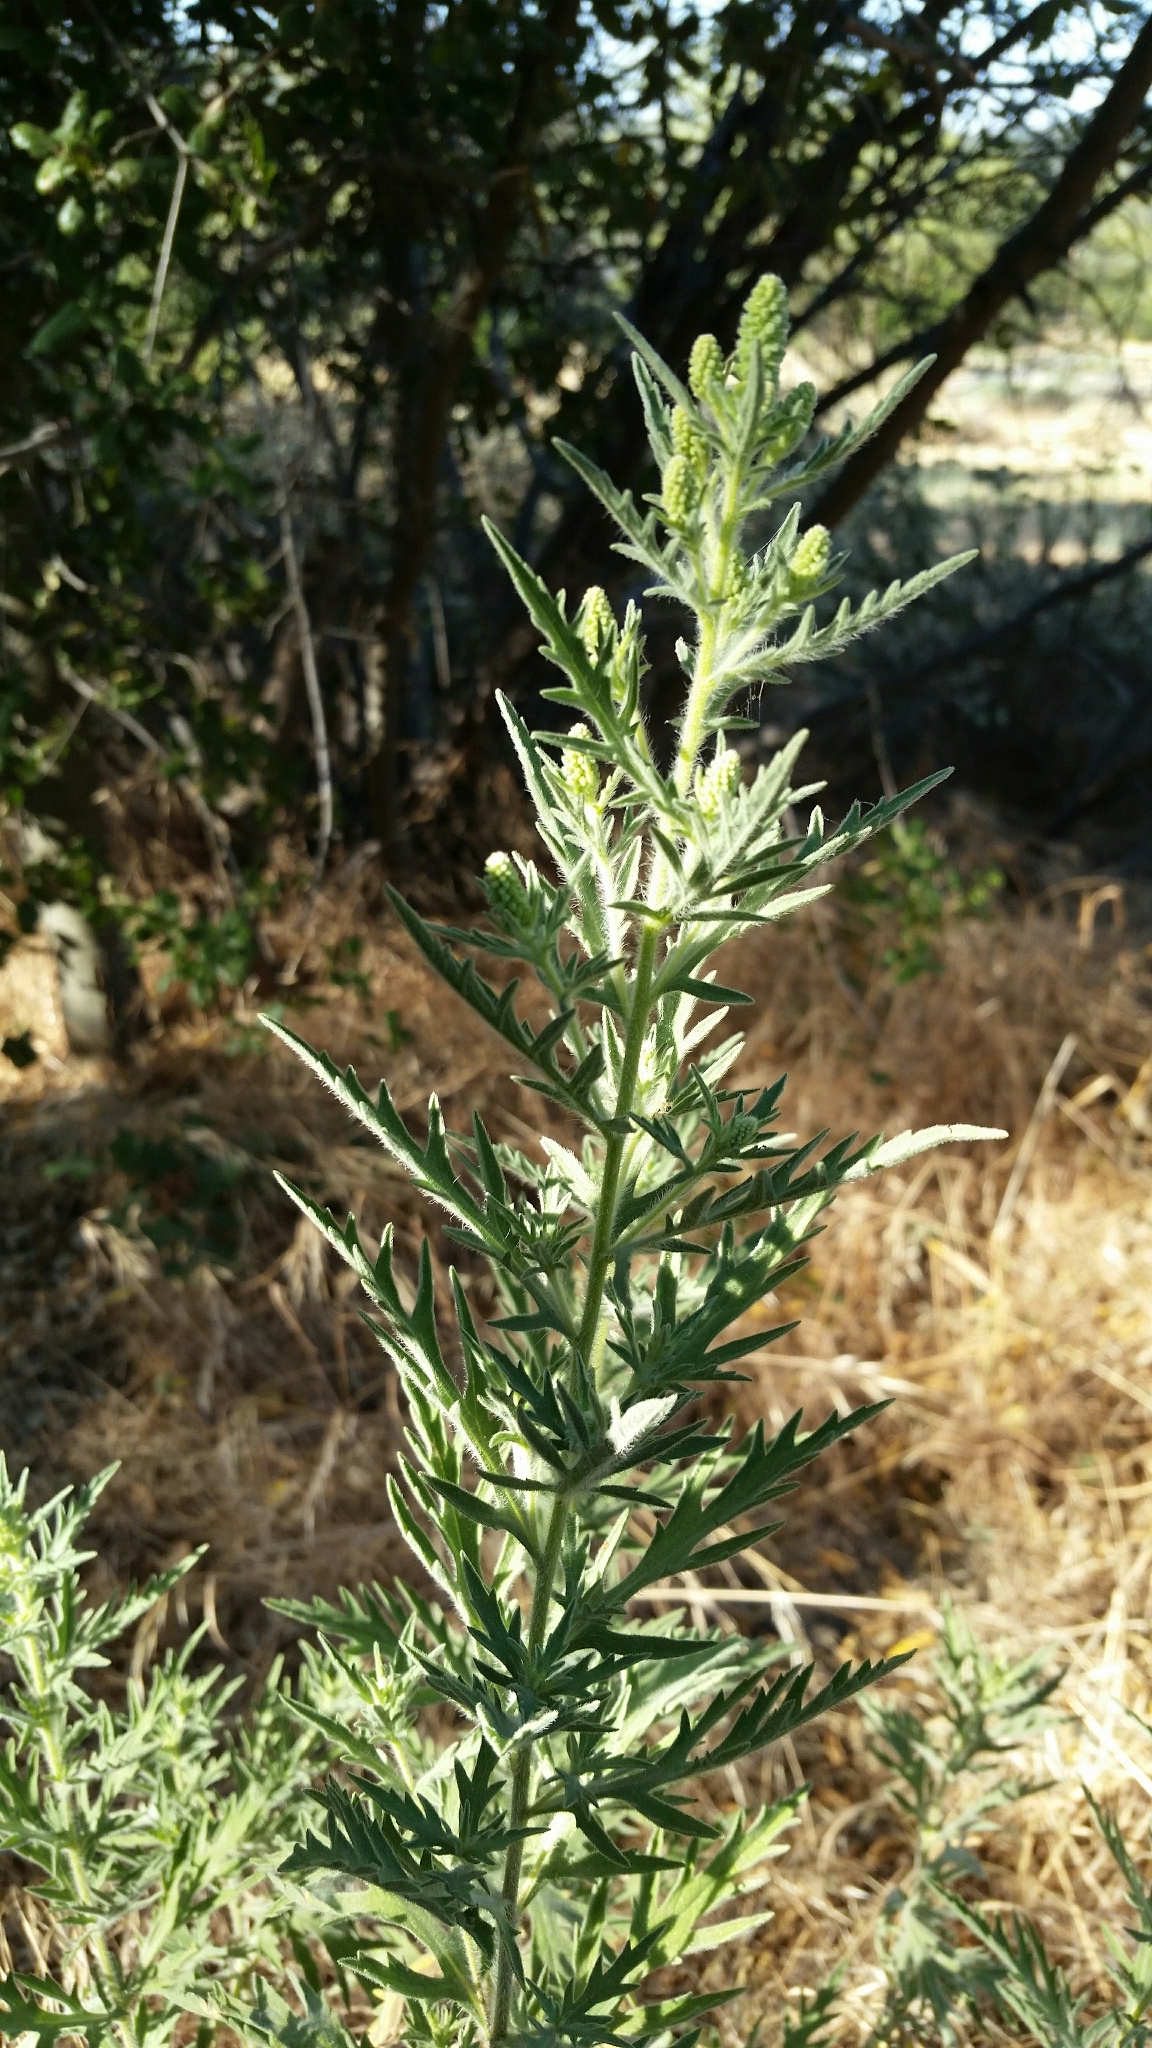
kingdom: Plantae
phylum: Tracheophyta
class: Magnoliopsida
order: Asterales
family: Asteraceae
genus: Ambrosia
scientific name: Ambrosia psilostachya
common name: Perennial ragweed
